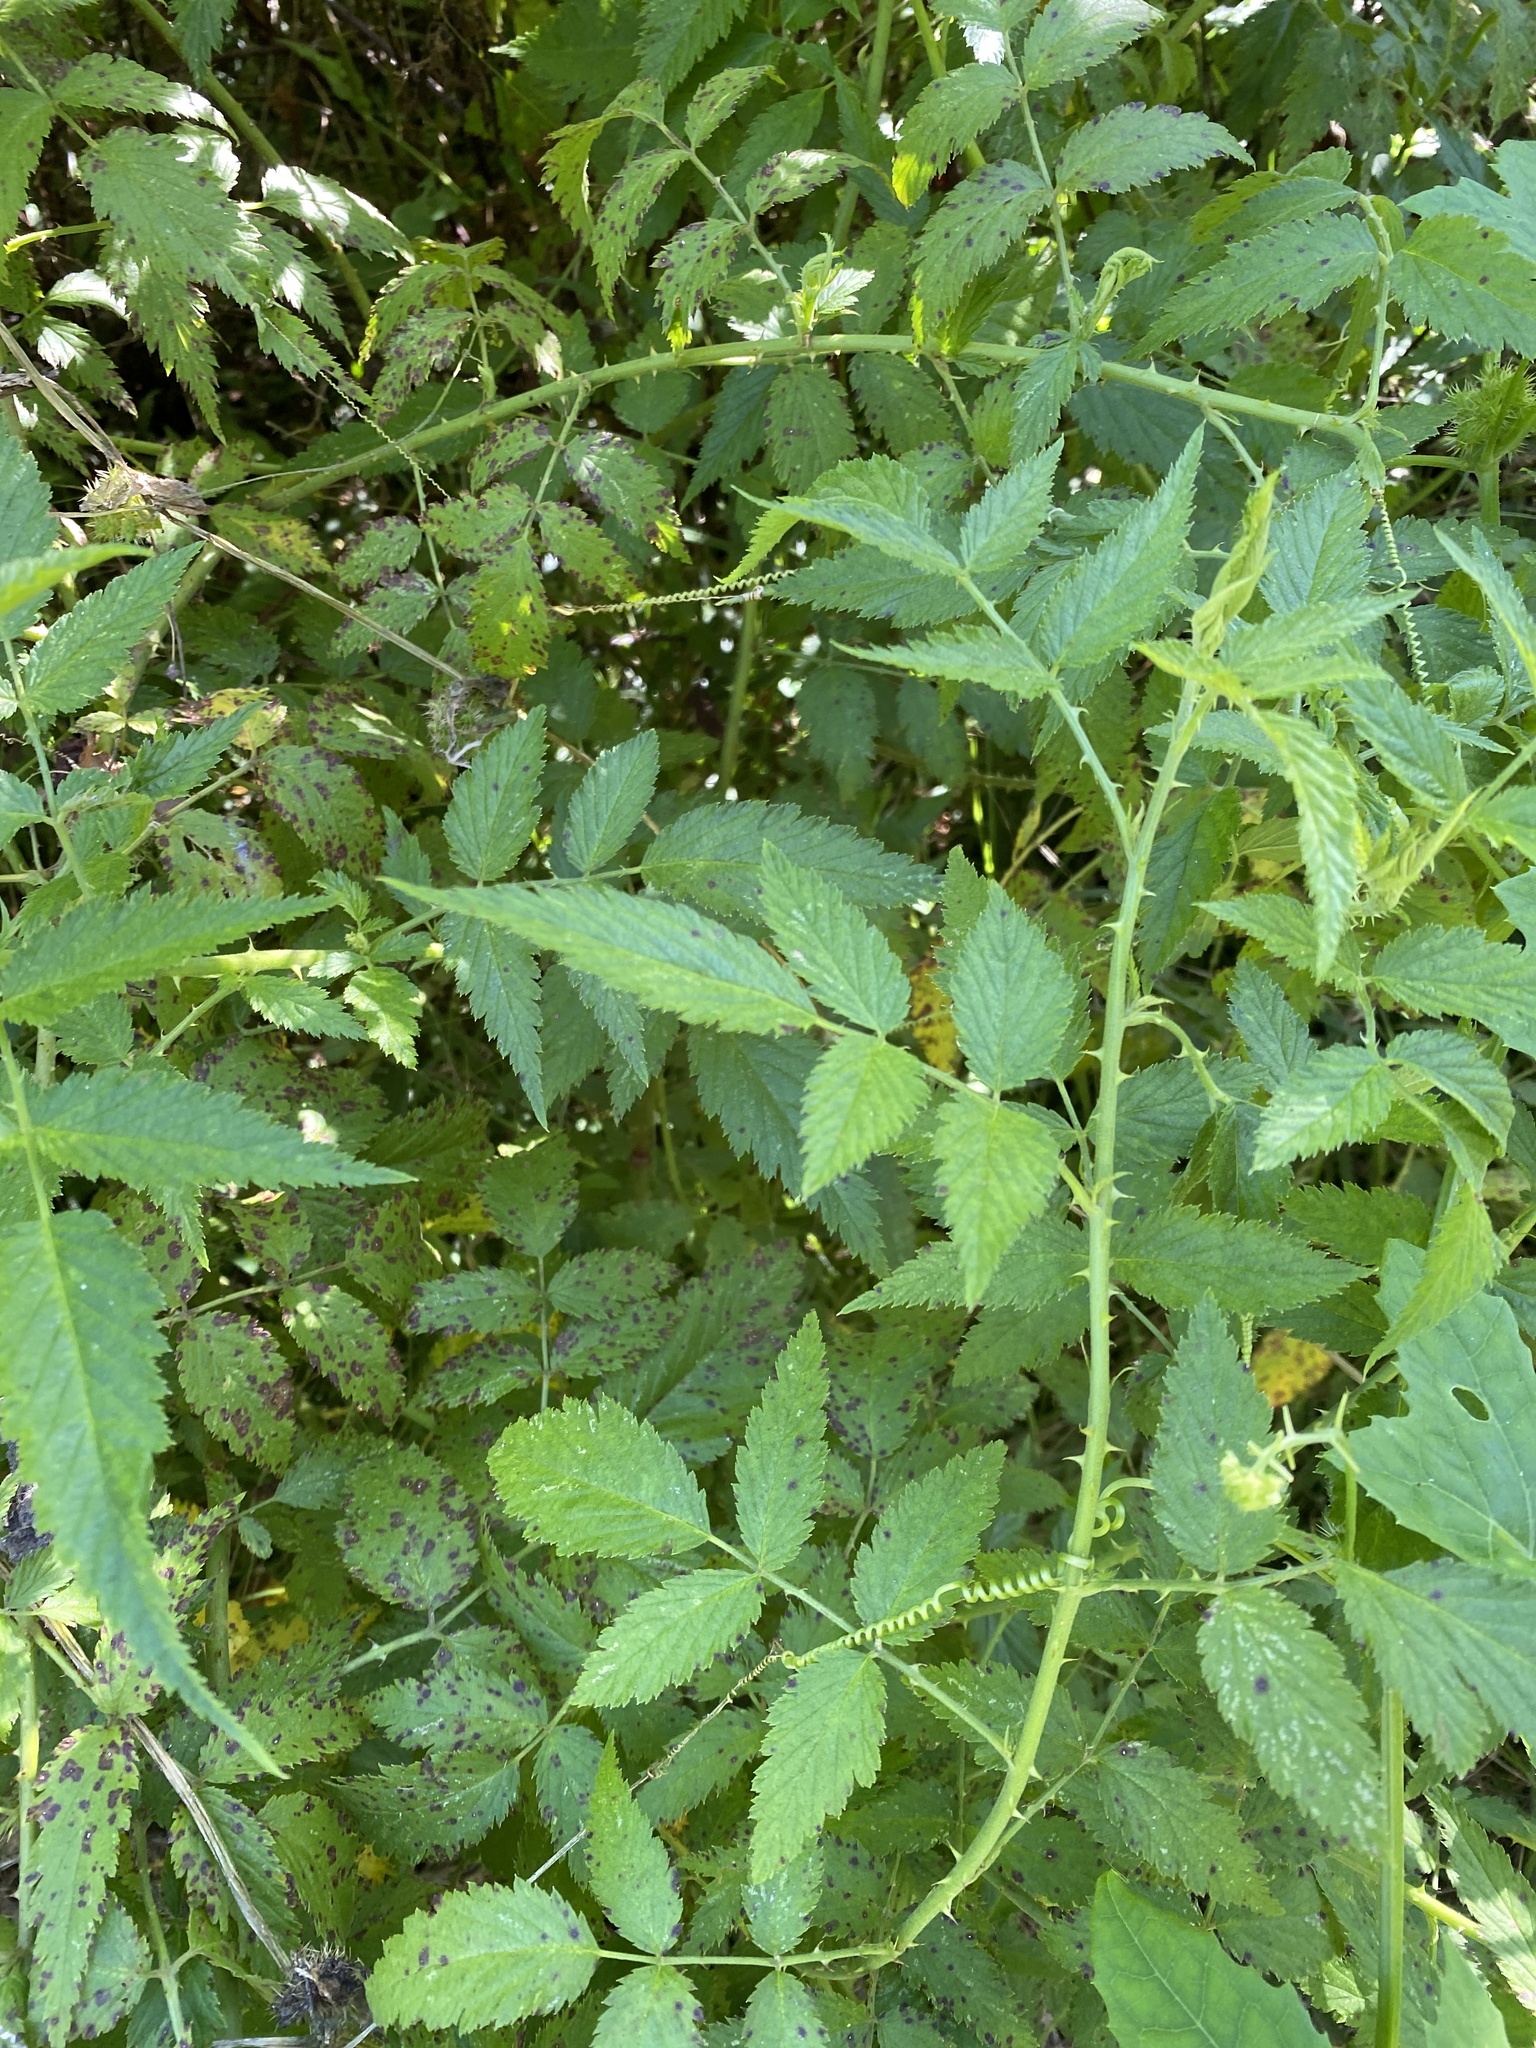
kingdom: Plantae
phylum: Tracheophyta
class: Magnoliopsida
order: Rosales
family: Rosaceae
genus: Rubus
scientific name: Rubus rosifolius
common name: Roseleaf raspberry
